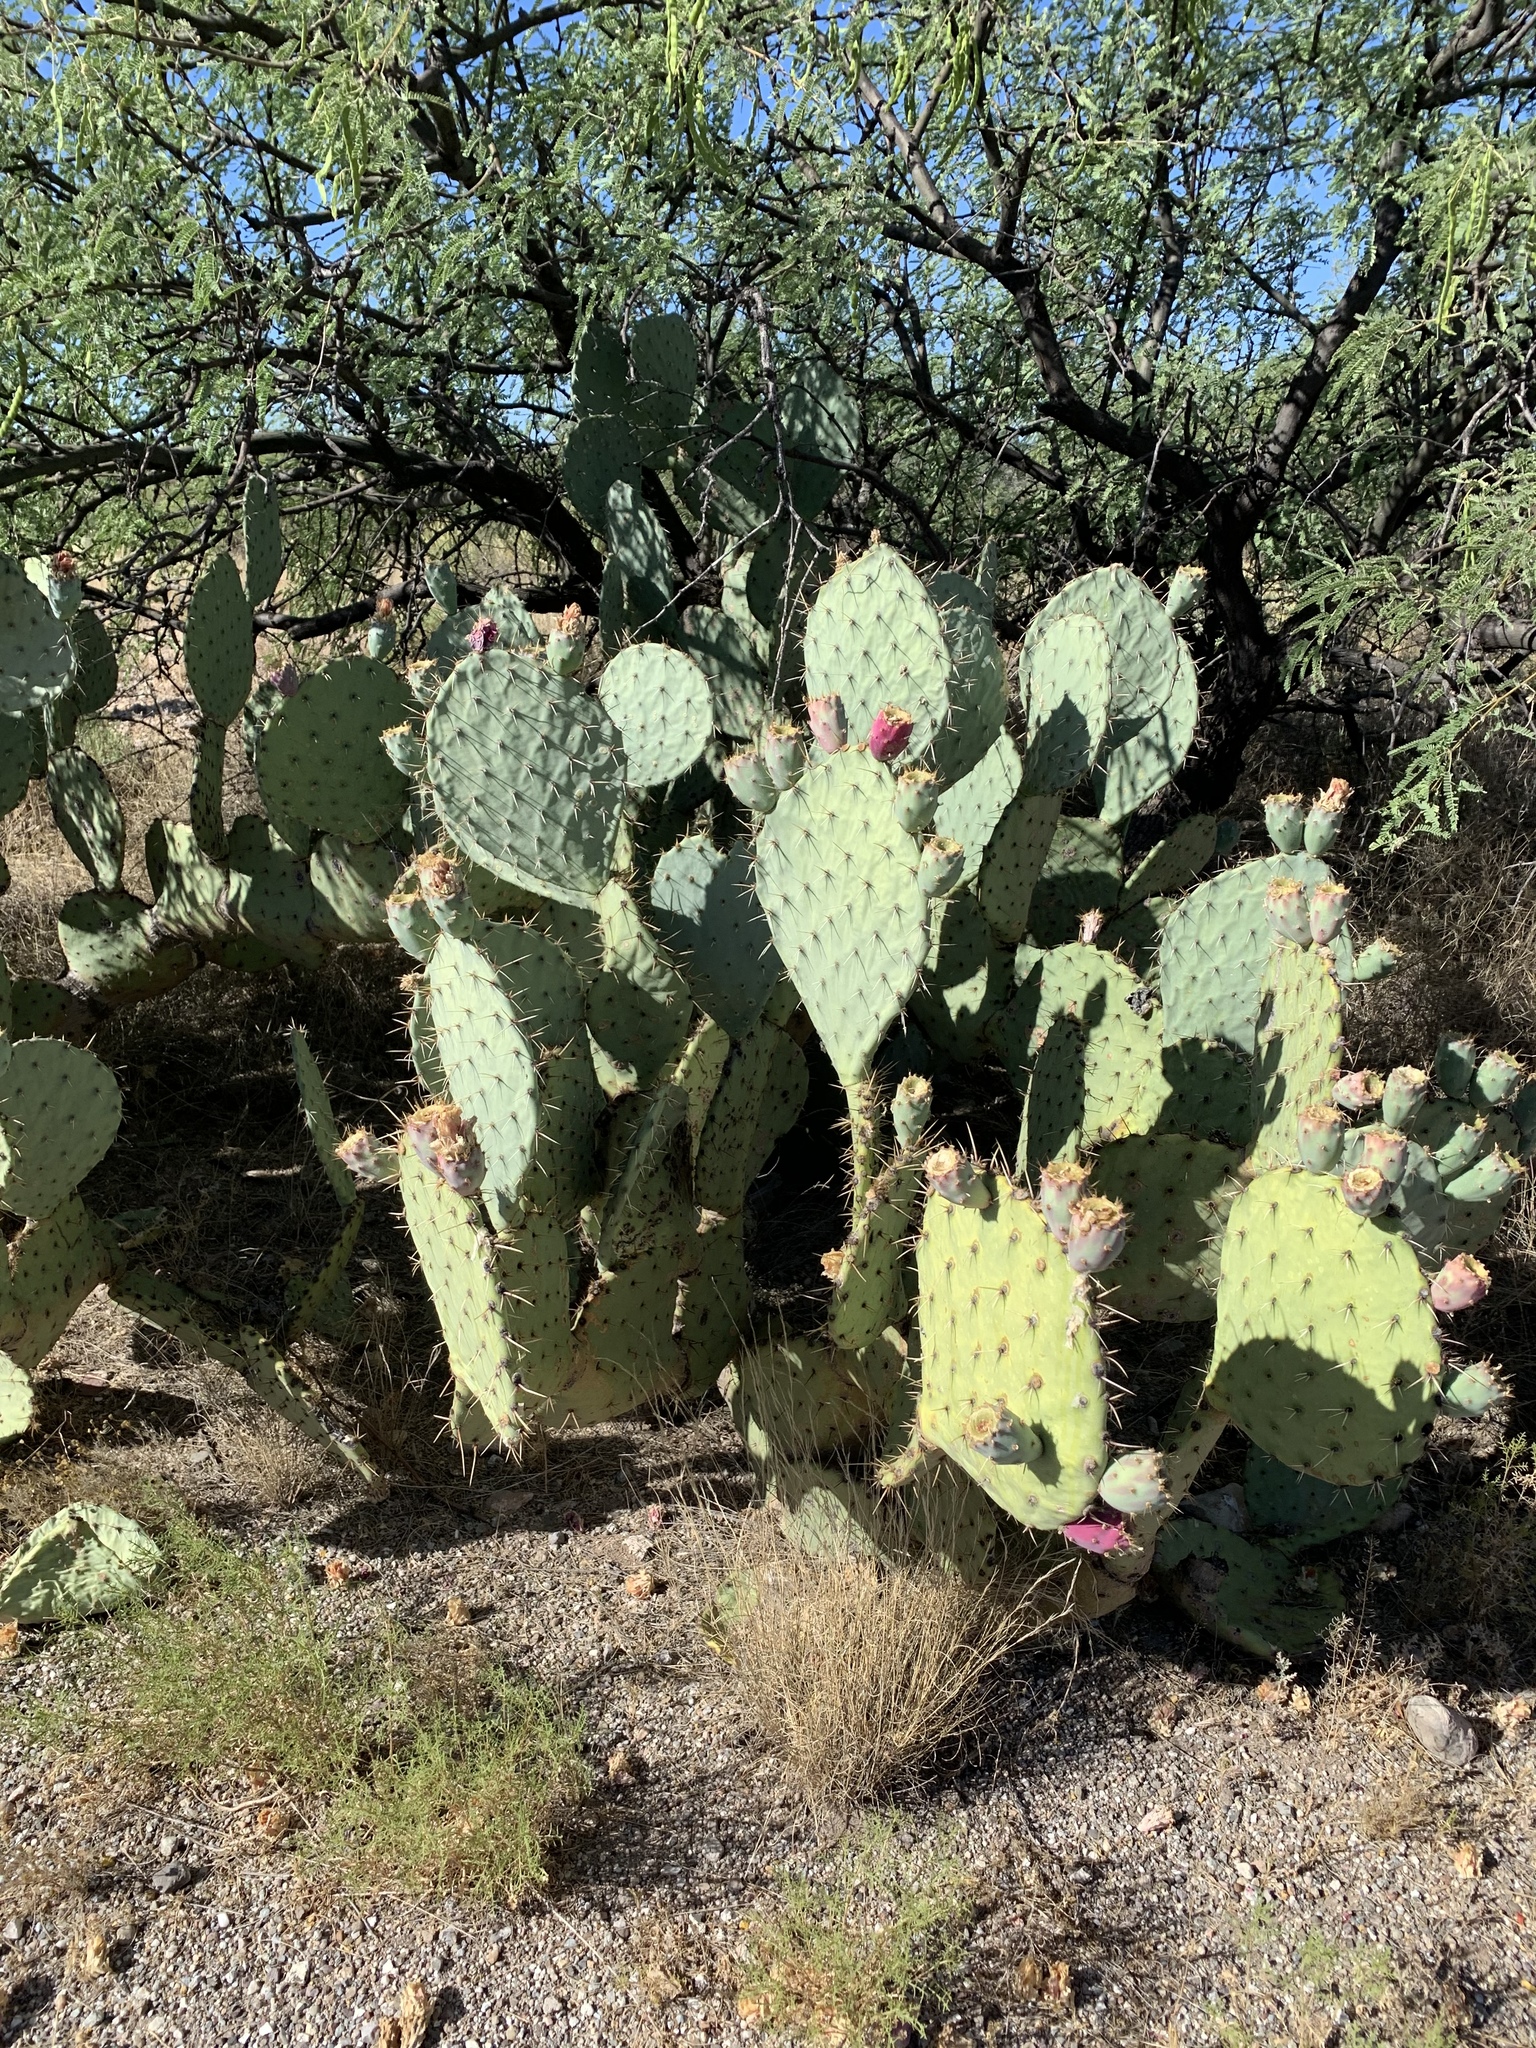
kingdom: Plantae
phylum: Tracheophyta
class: Magnoliopsida
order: Caryophyllales
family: Cactaceae
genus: Opuntia
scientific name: Opuntia engelmannii
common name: Cactus-apple
